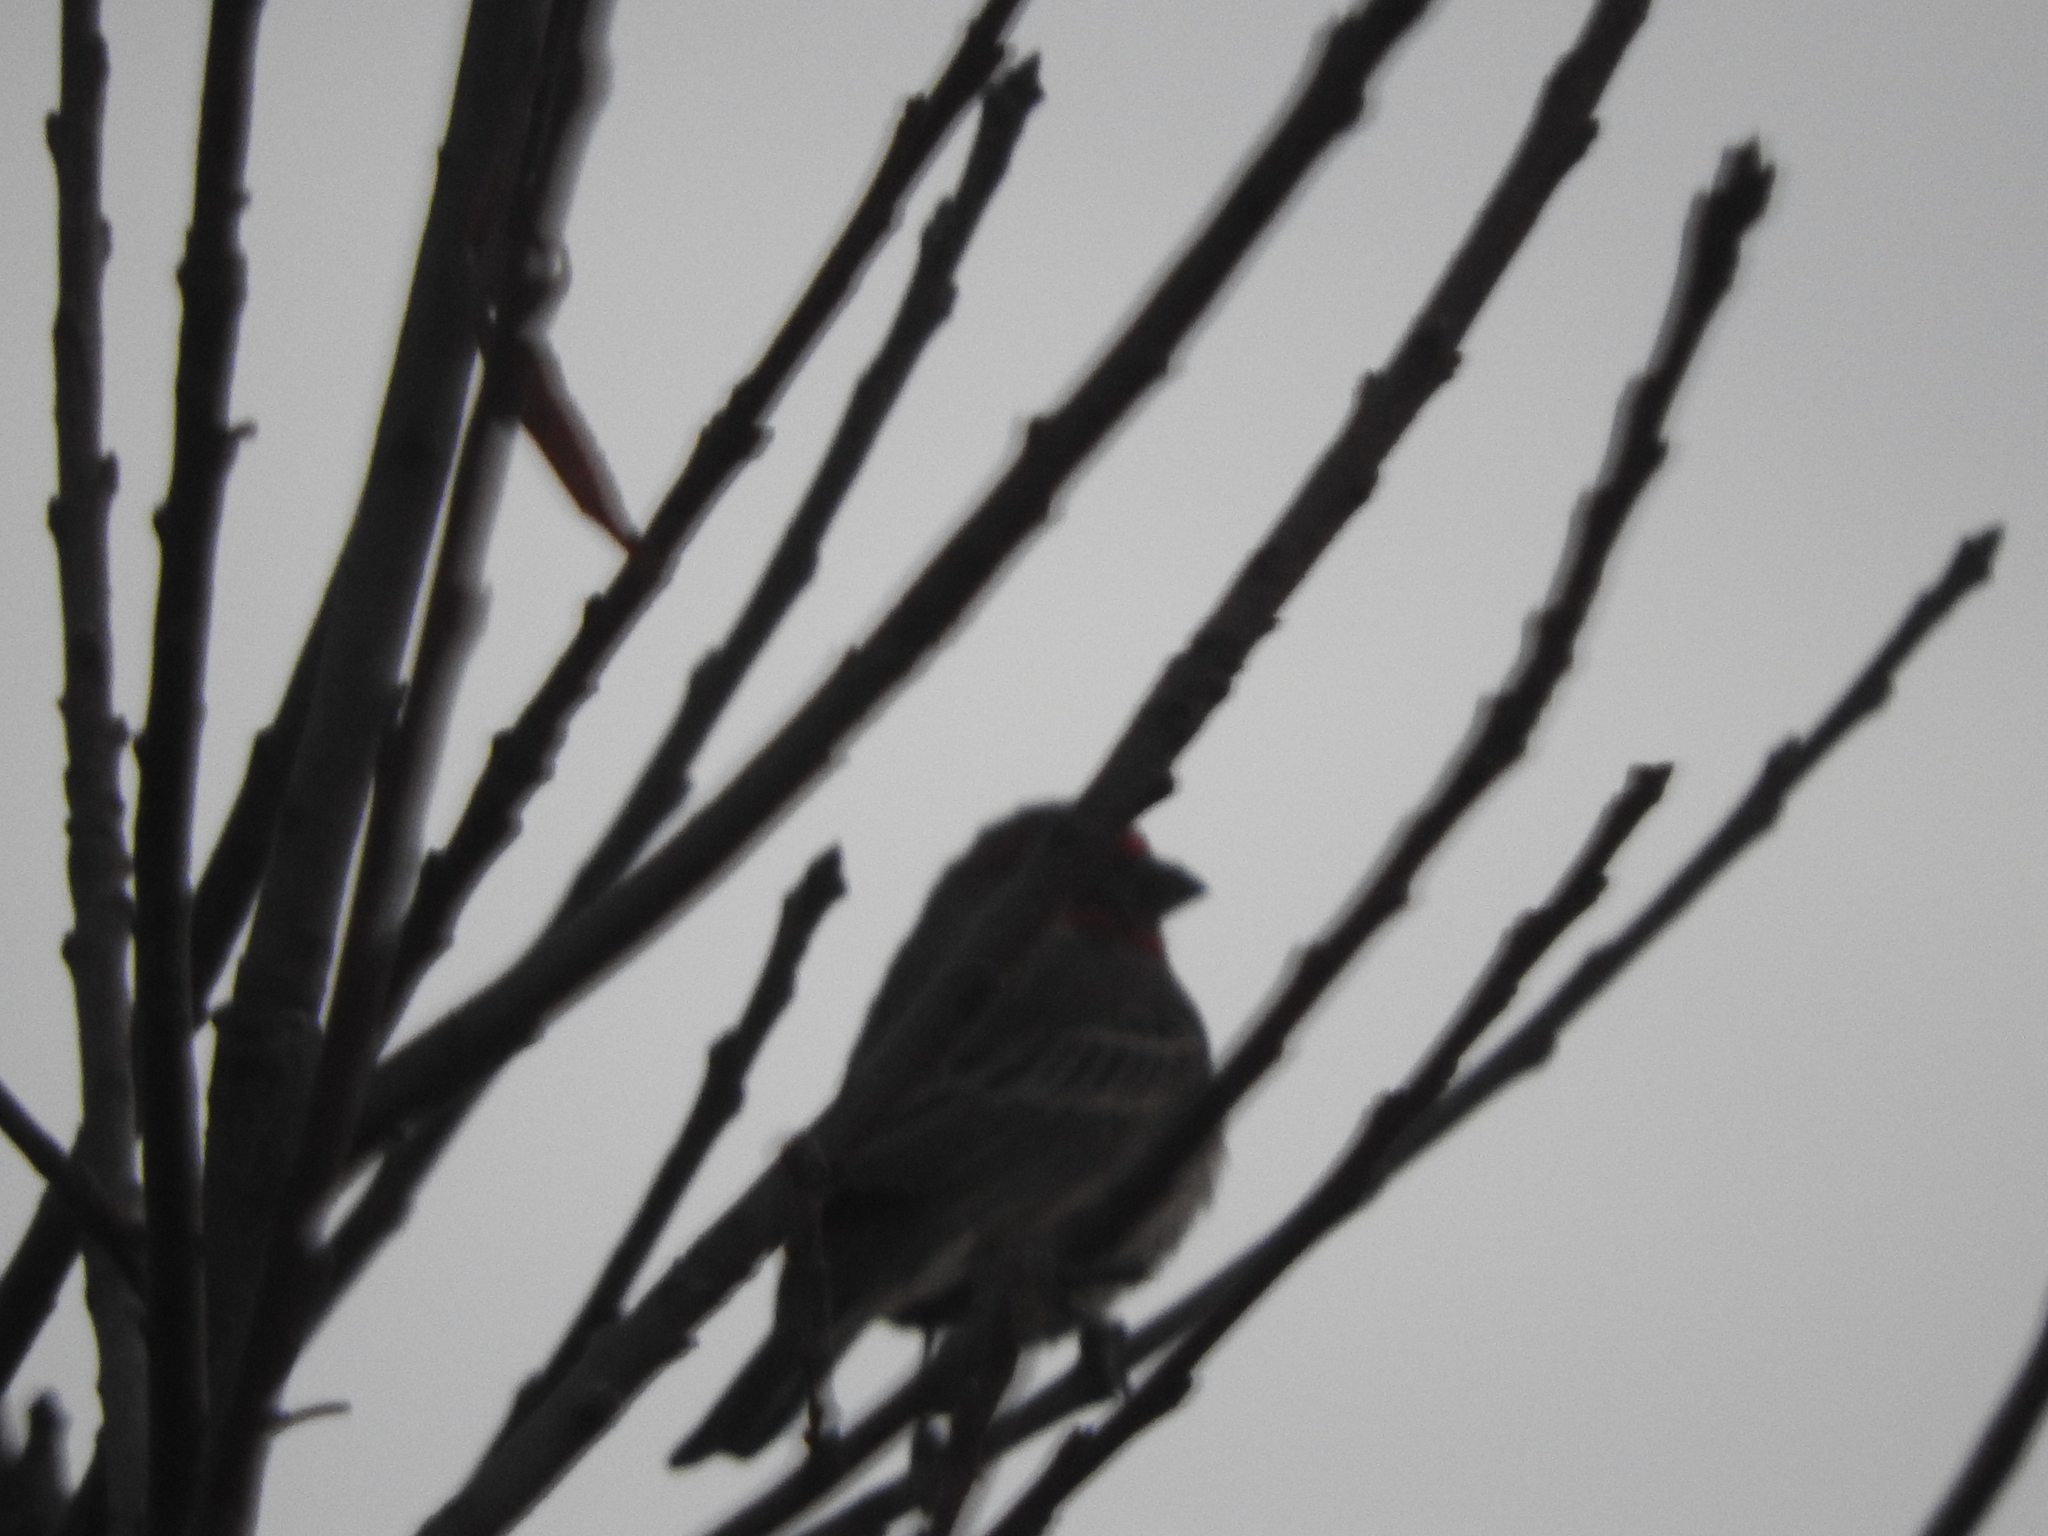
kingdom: Animalia
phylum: Chordata
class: Aves
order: Passeriformes
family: Fringillidae
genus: Haemorhous
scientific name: Haemorhous mexicanus
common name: House finch
